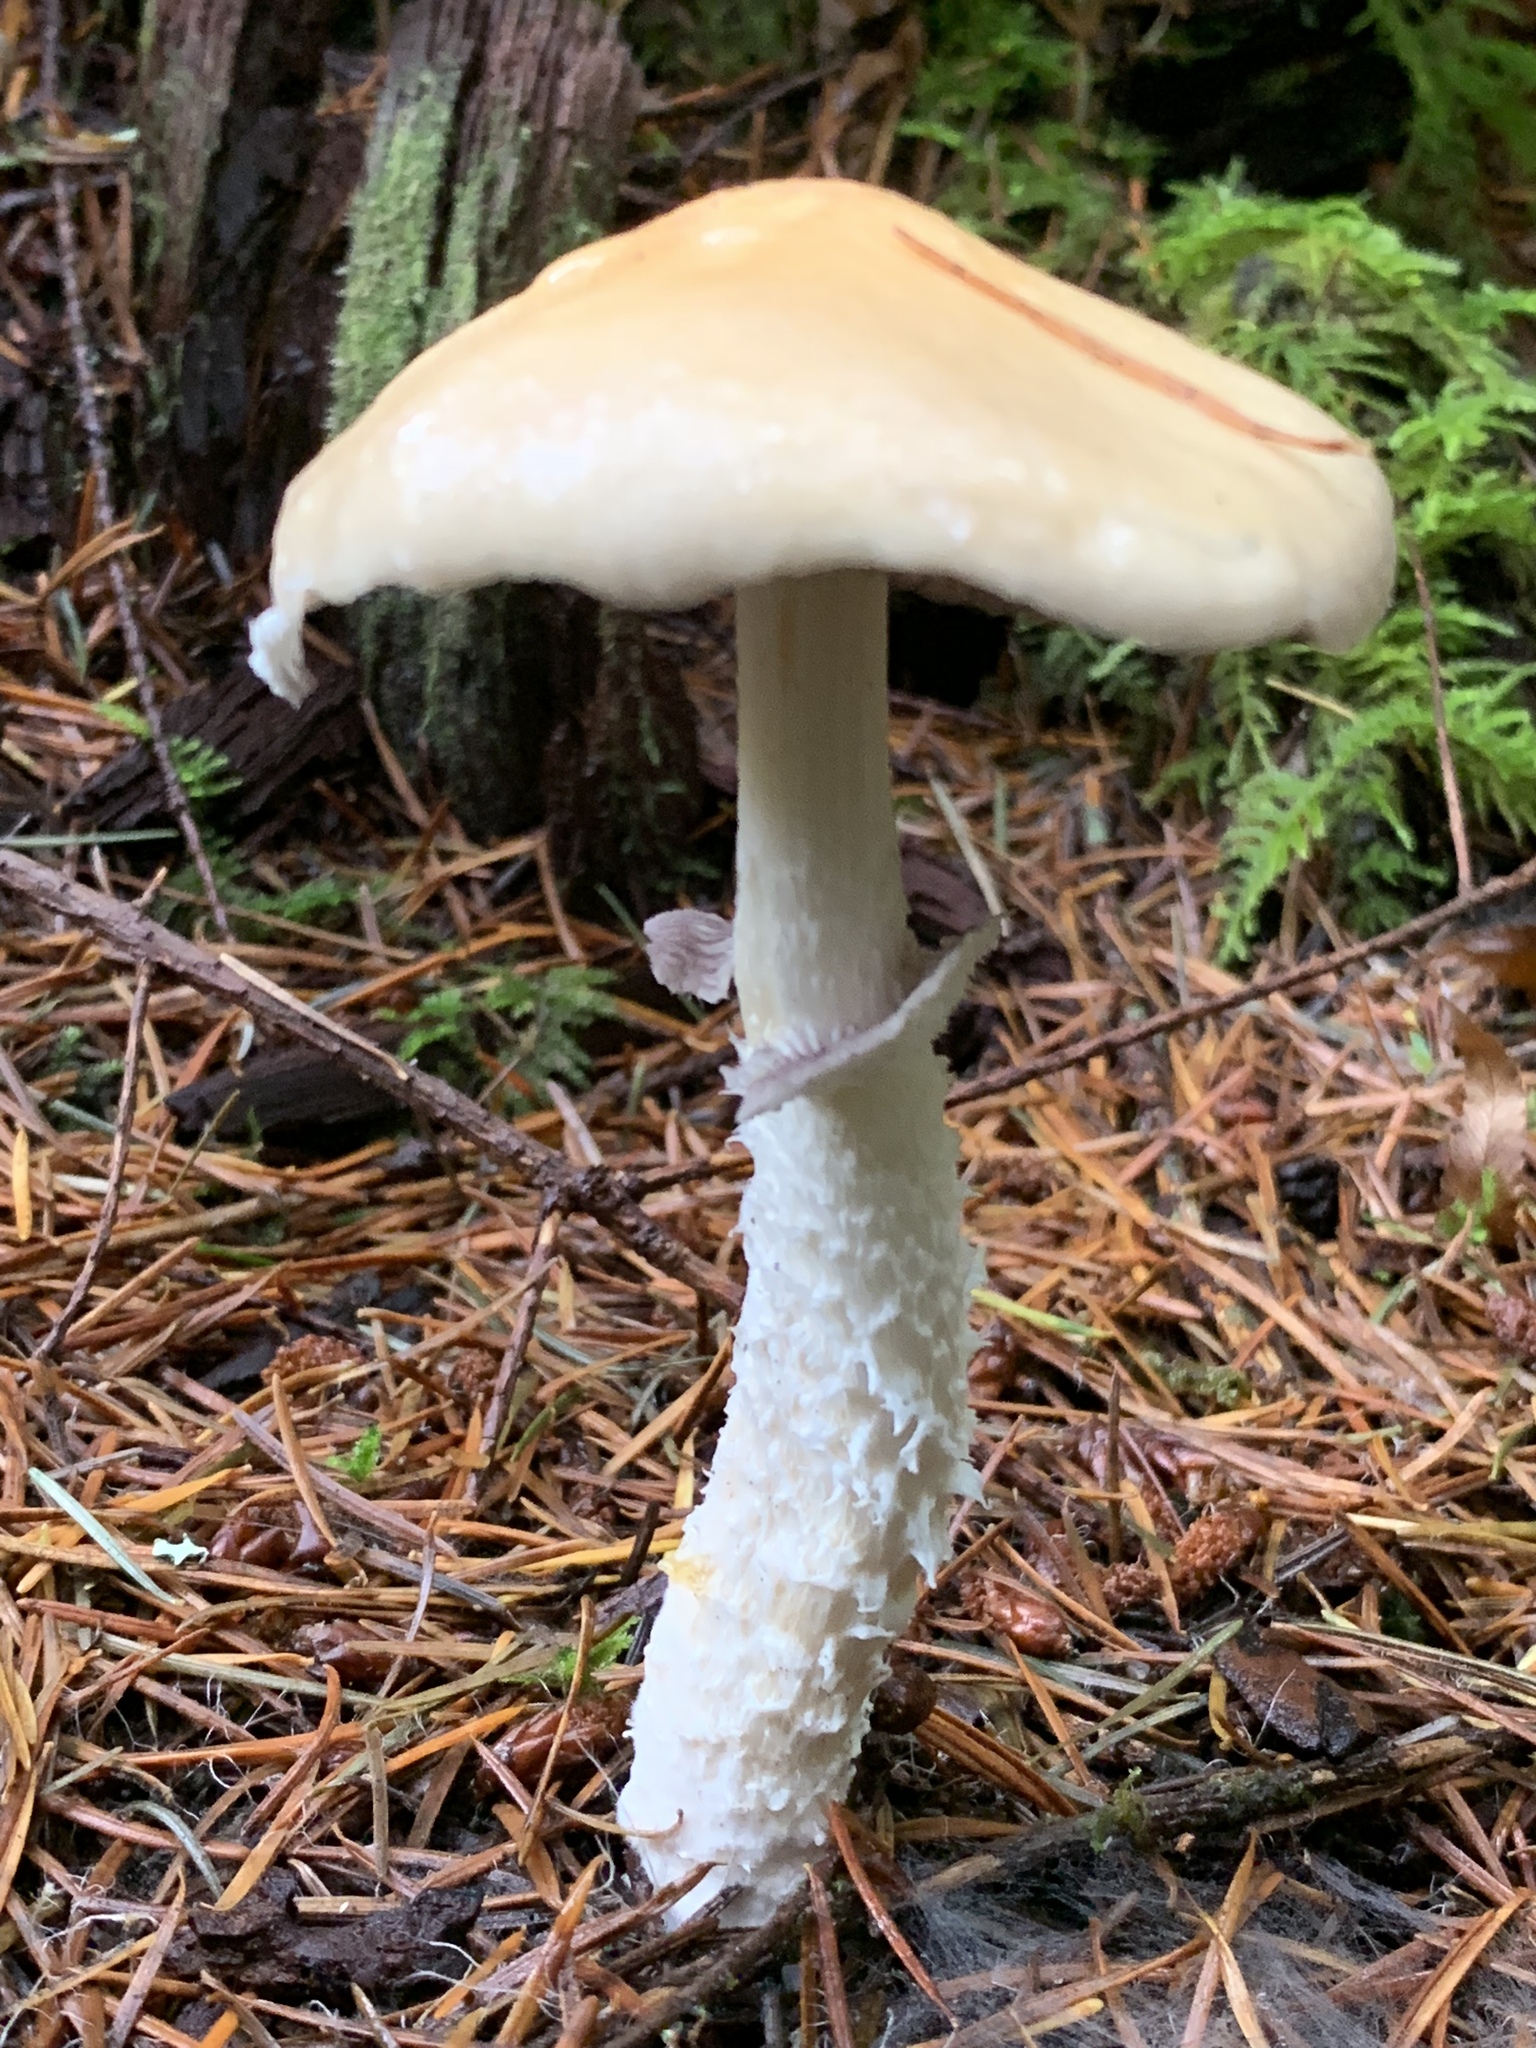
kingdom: Fungi
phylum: Basidiomycota
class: Agaricomycetes
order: Agaricales
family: Strophariaceae
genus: Stropharia
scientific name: Stropharia ambigua
